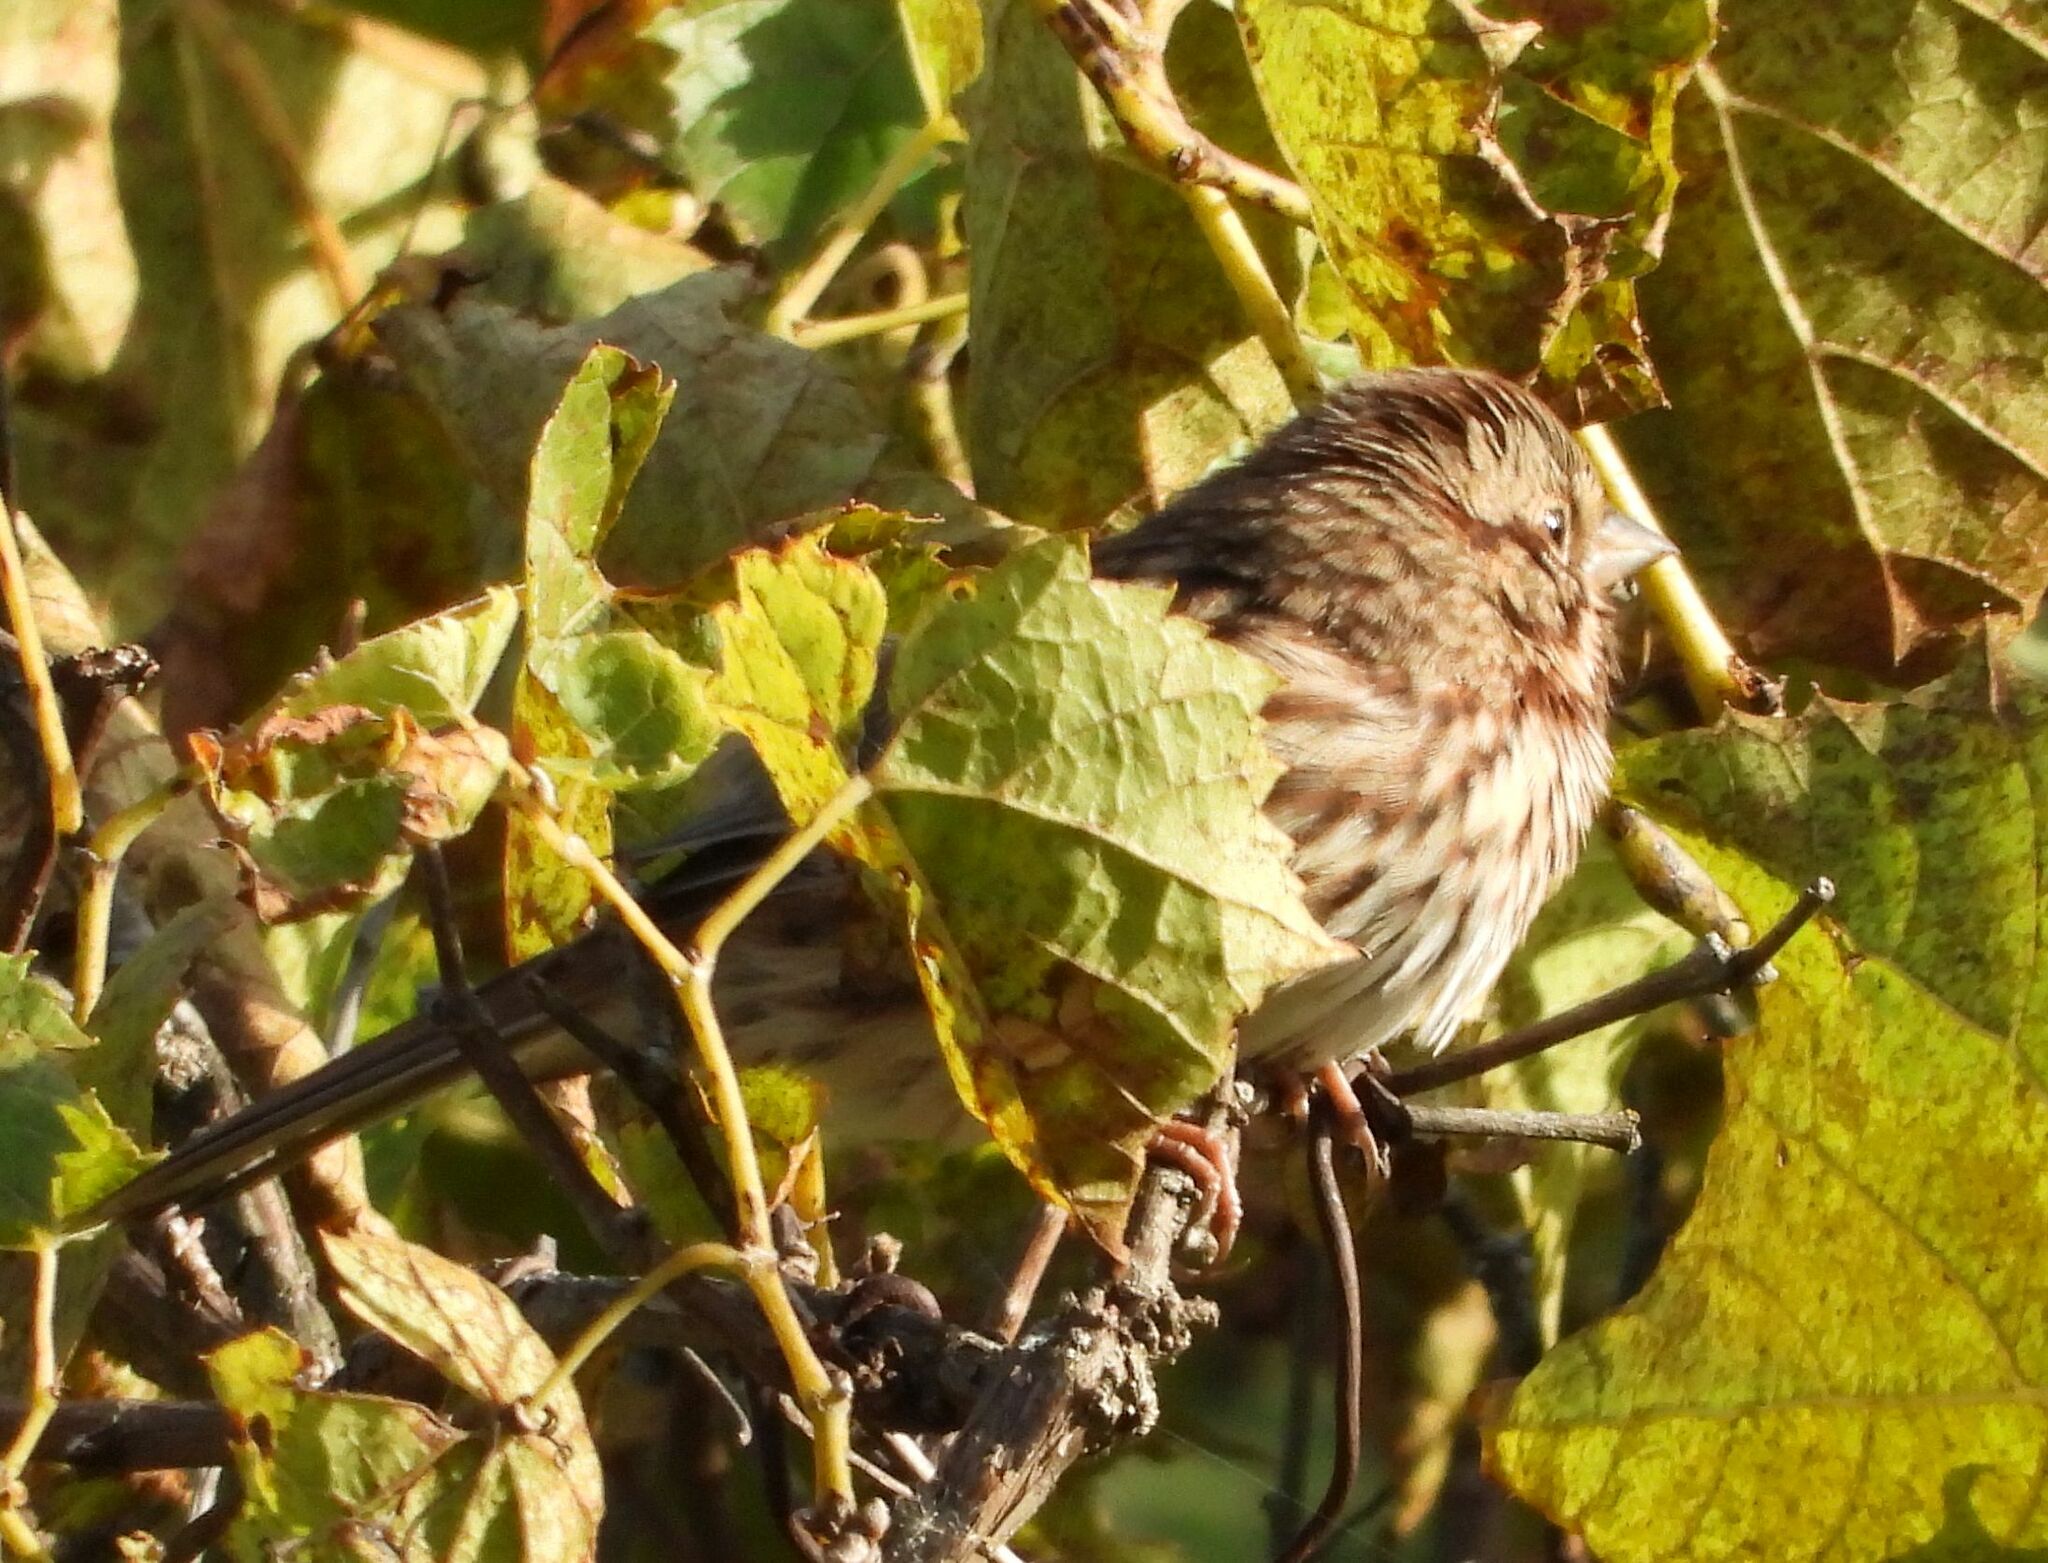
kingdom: Animalia
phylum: Chordata
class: Aves
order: Passeriformes
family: Passerellidae
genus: Melospiza
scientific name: Melospiza melodia
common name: Song sparrow
